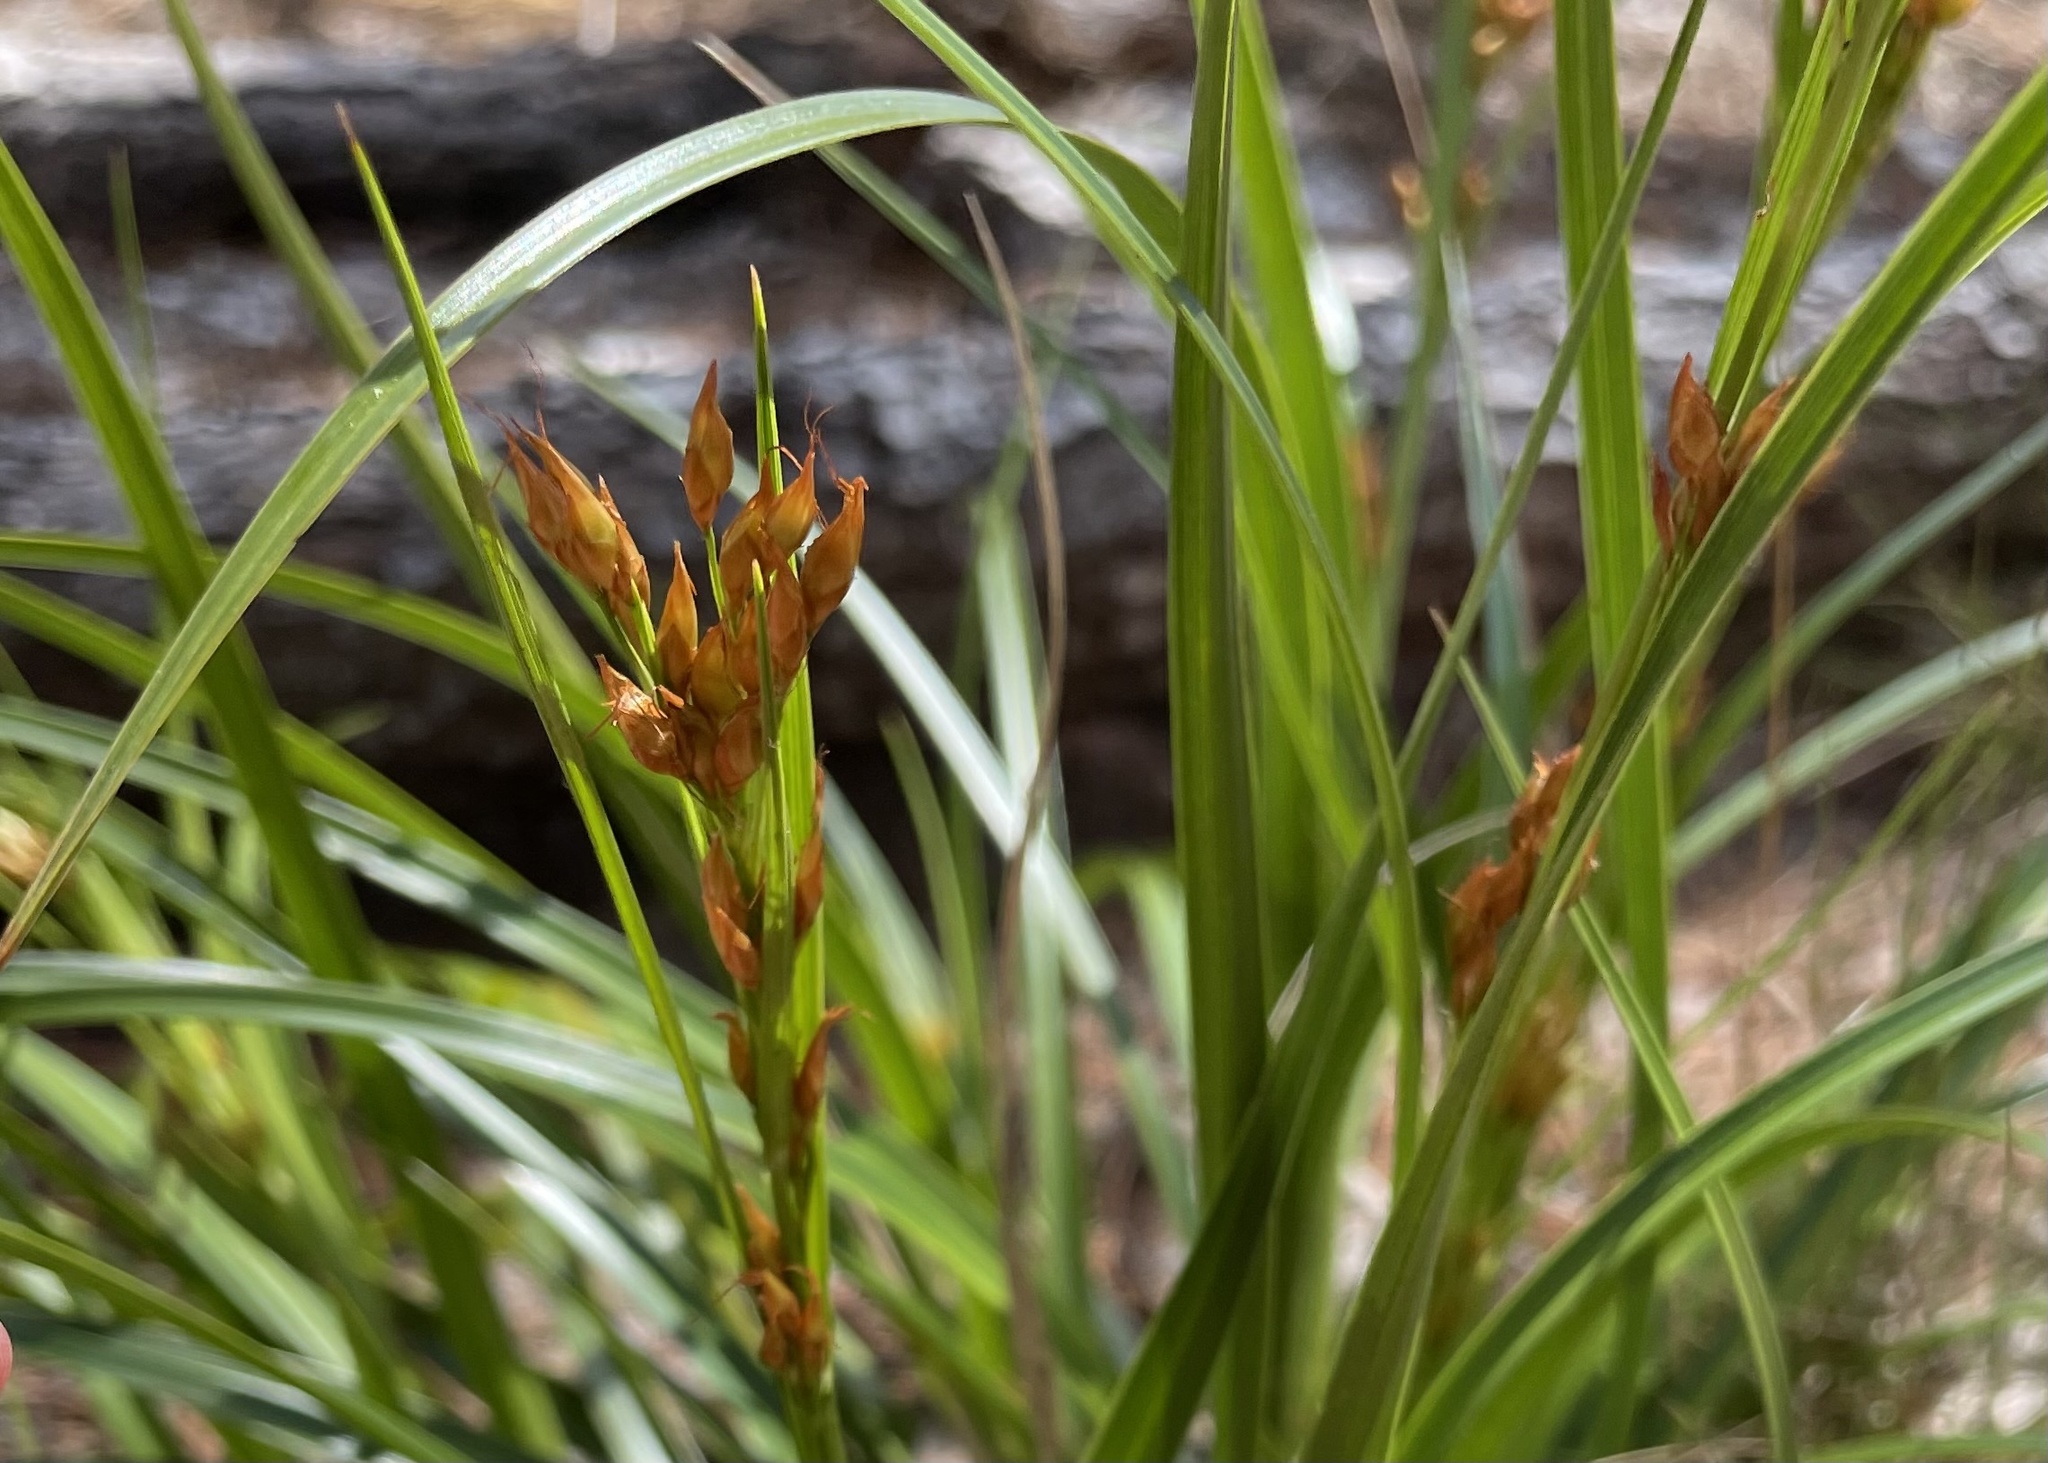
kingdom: Plantae
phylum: Tracheophyta
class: Liliopsida
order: Poales
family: Cyperaceae
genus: Rhynchospora
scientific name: Rhynchospora megalocarpa
